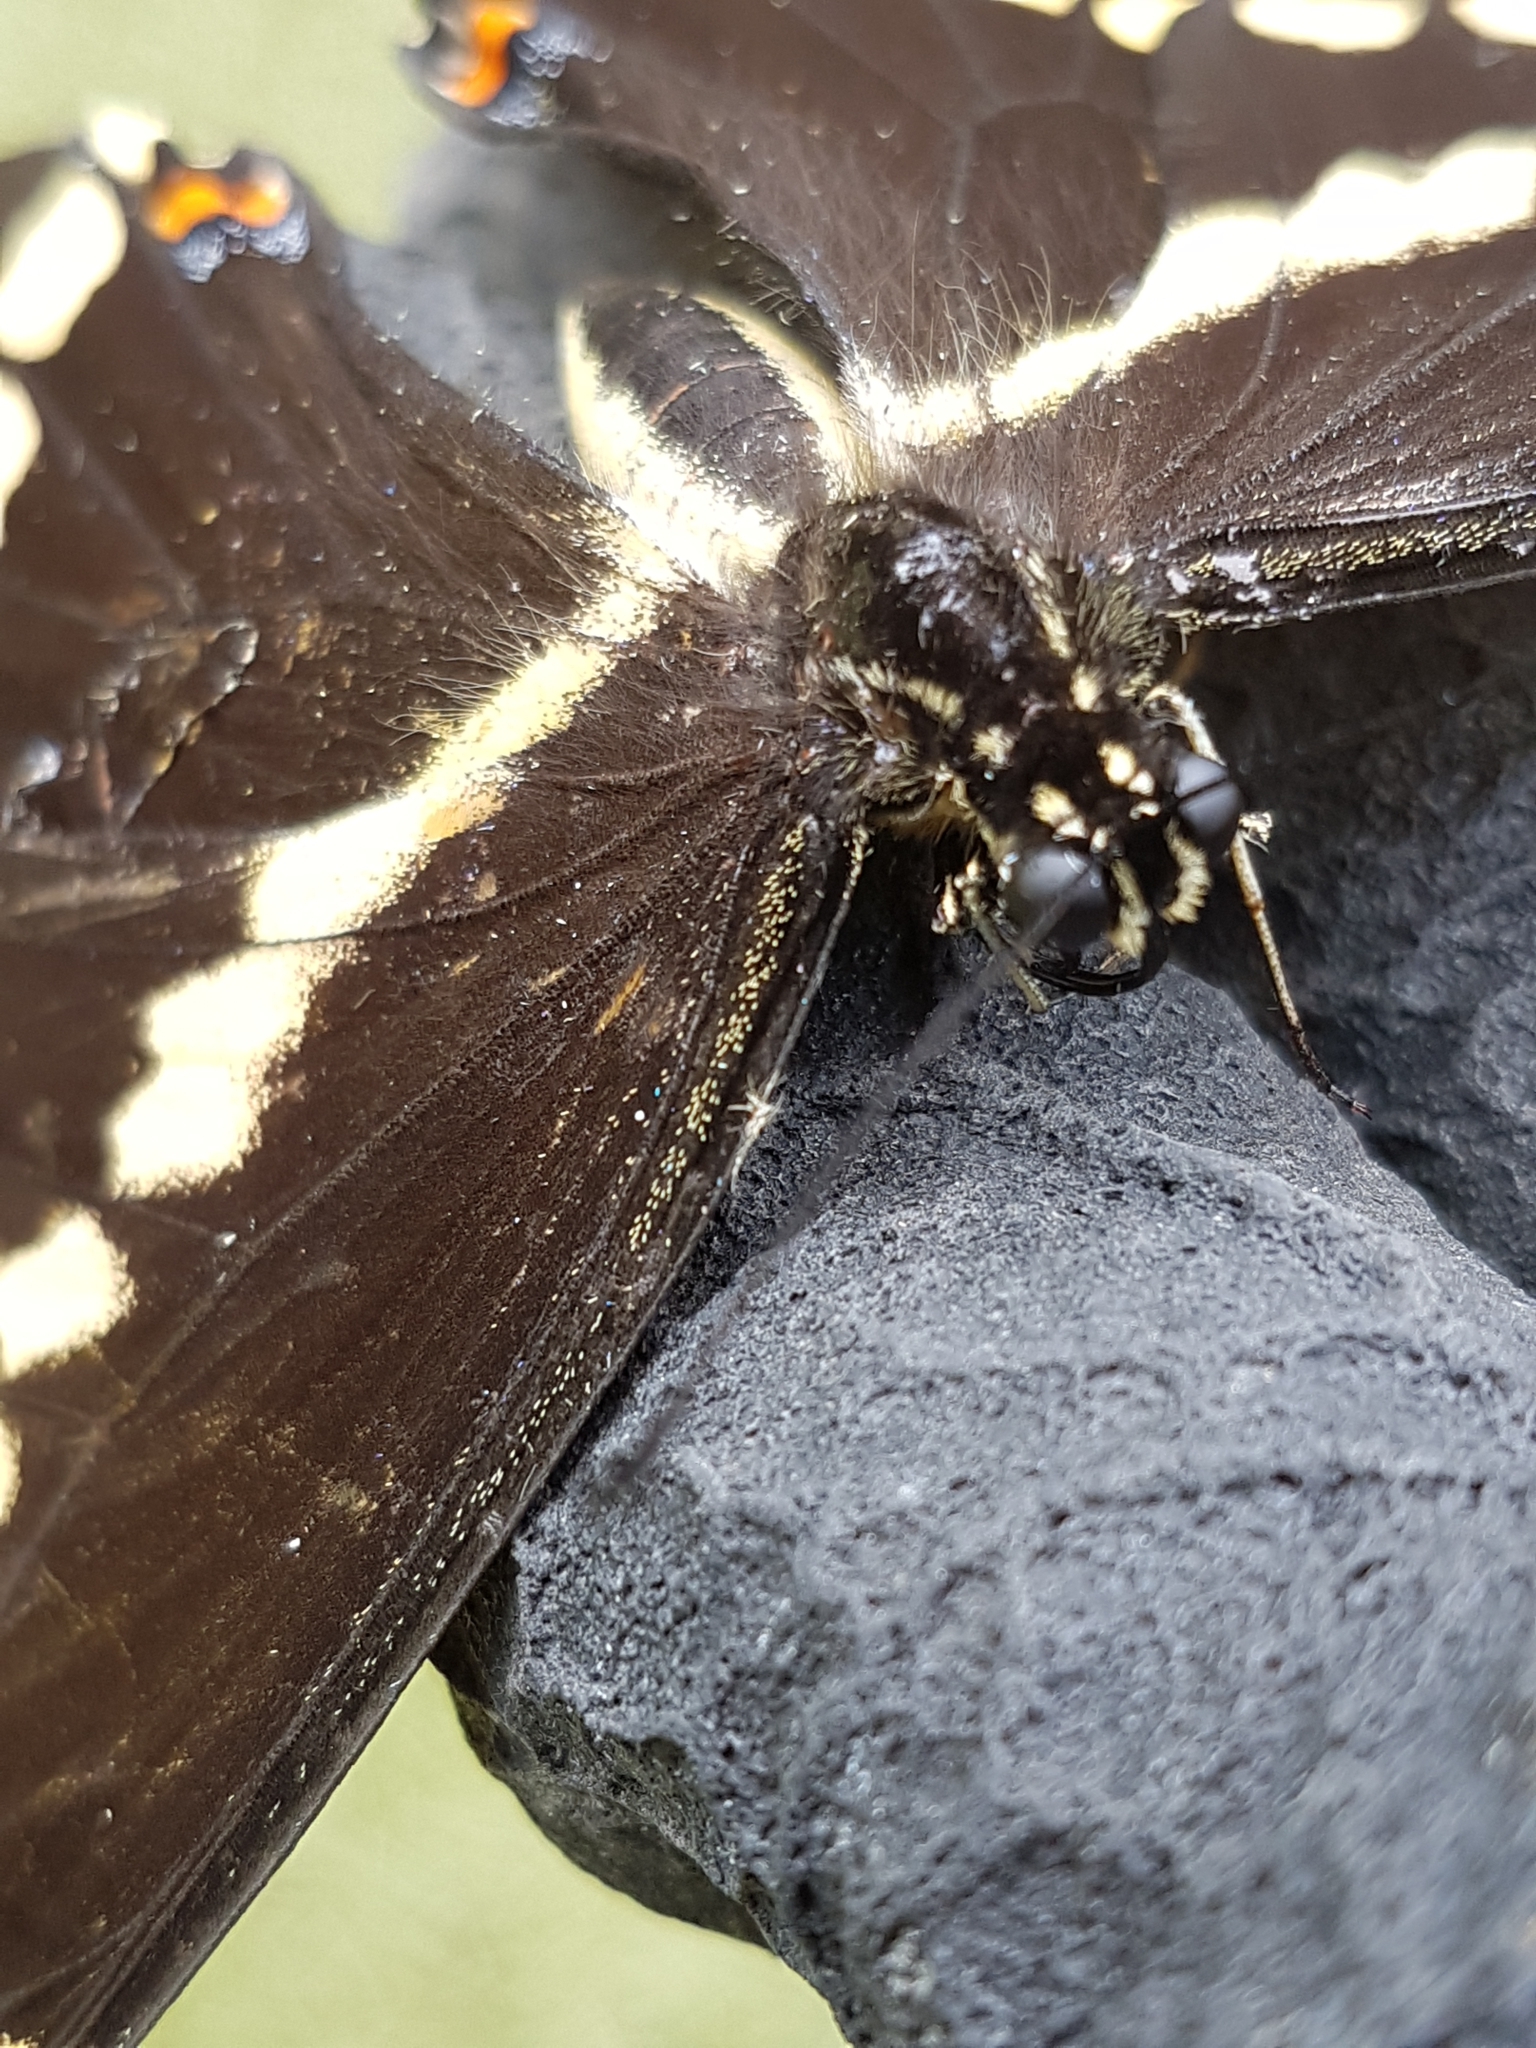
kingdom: Animalia
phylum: Arthropoda
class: Insecta
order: Lepidoptera
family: Papilionidae
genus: Papilio
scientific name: Papilio cresphontes
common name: Giant swallowtail
